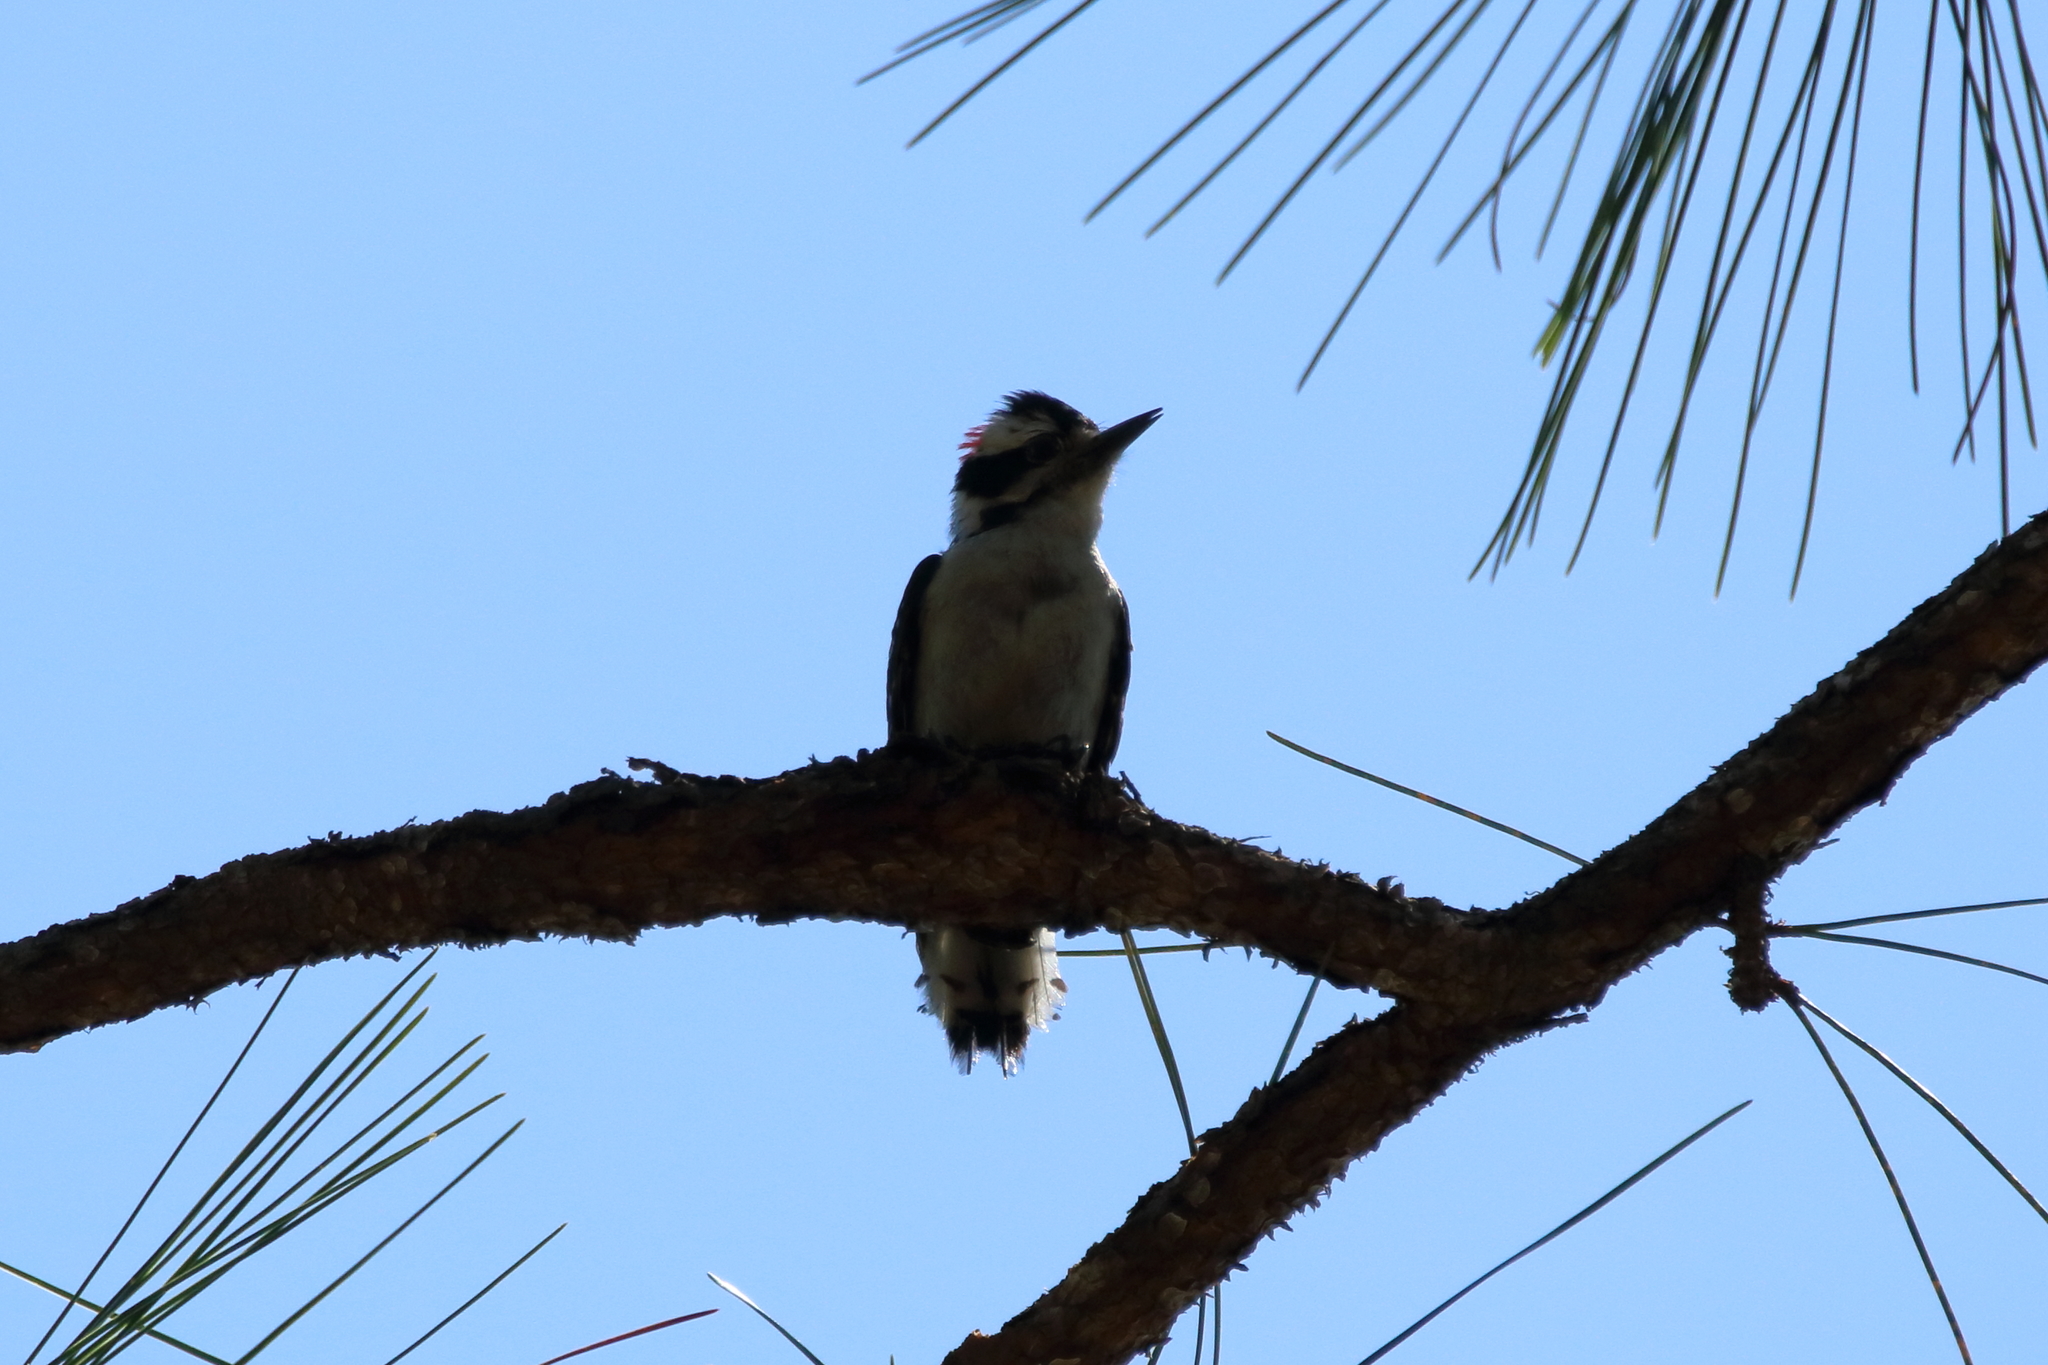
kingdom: Animalia
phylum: Chordata
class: Aves
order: Piciformes
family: Picidae
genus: Dryobates
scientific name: Dryobates pubescens
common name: Downy woodpecker
